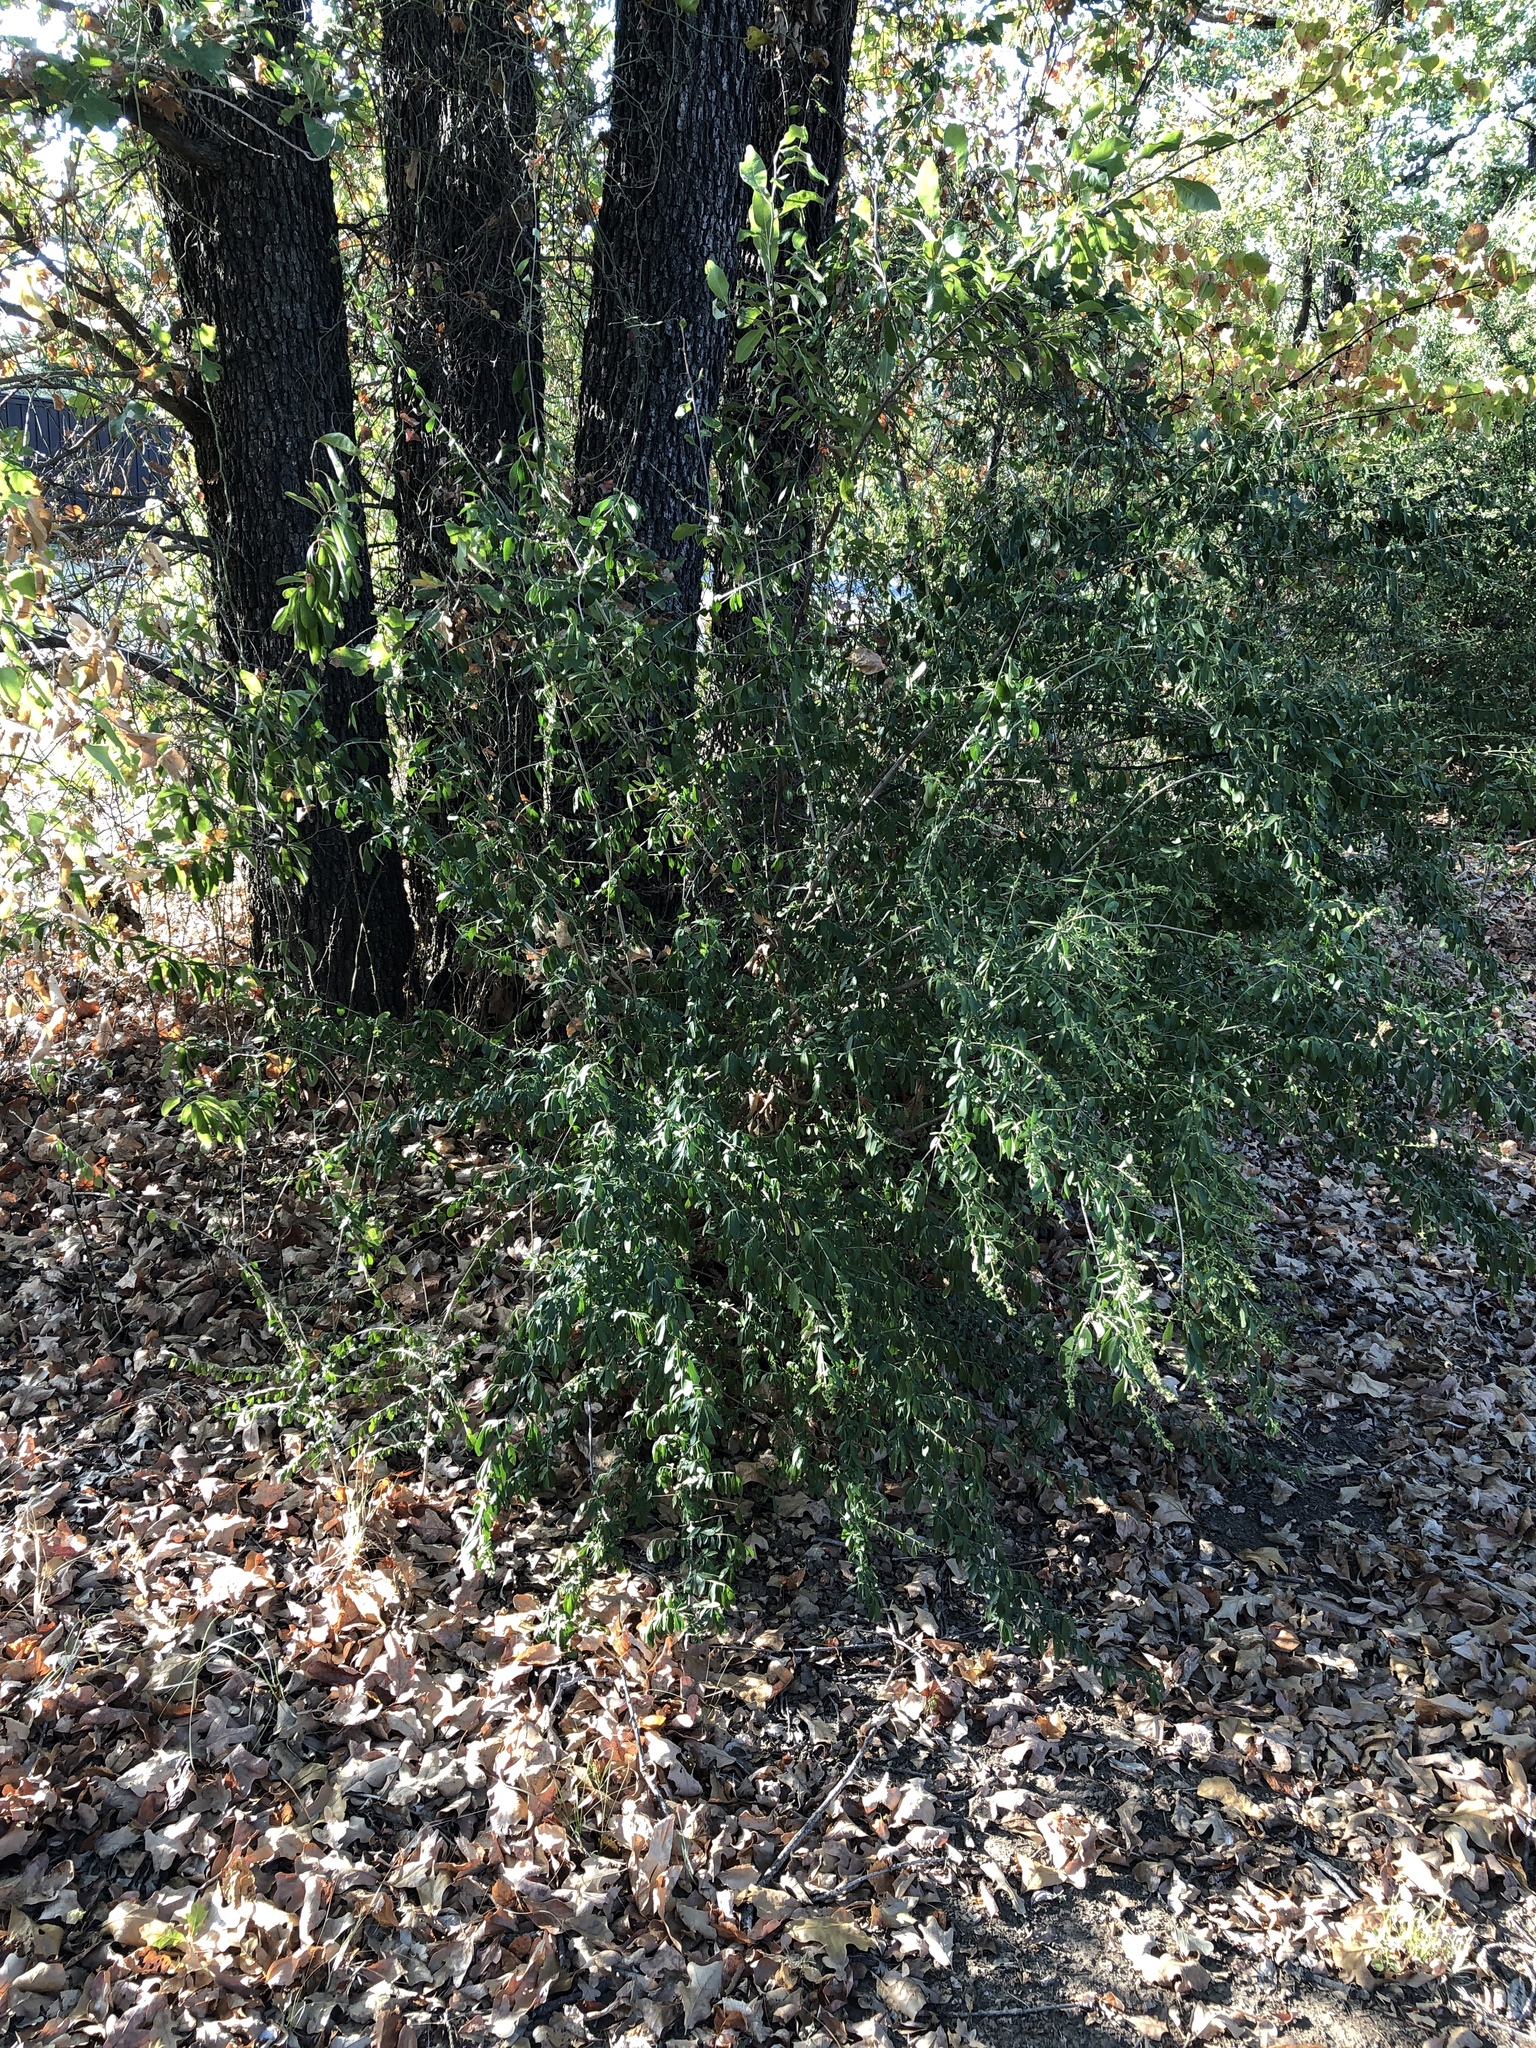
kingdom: Plantae
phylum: Tracheophyta
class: Magnoliopsida
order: Lamiales
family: Oleaceae
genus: Ligustrum
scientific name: Ligustrum quihoui
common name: Waxyleaf privet
